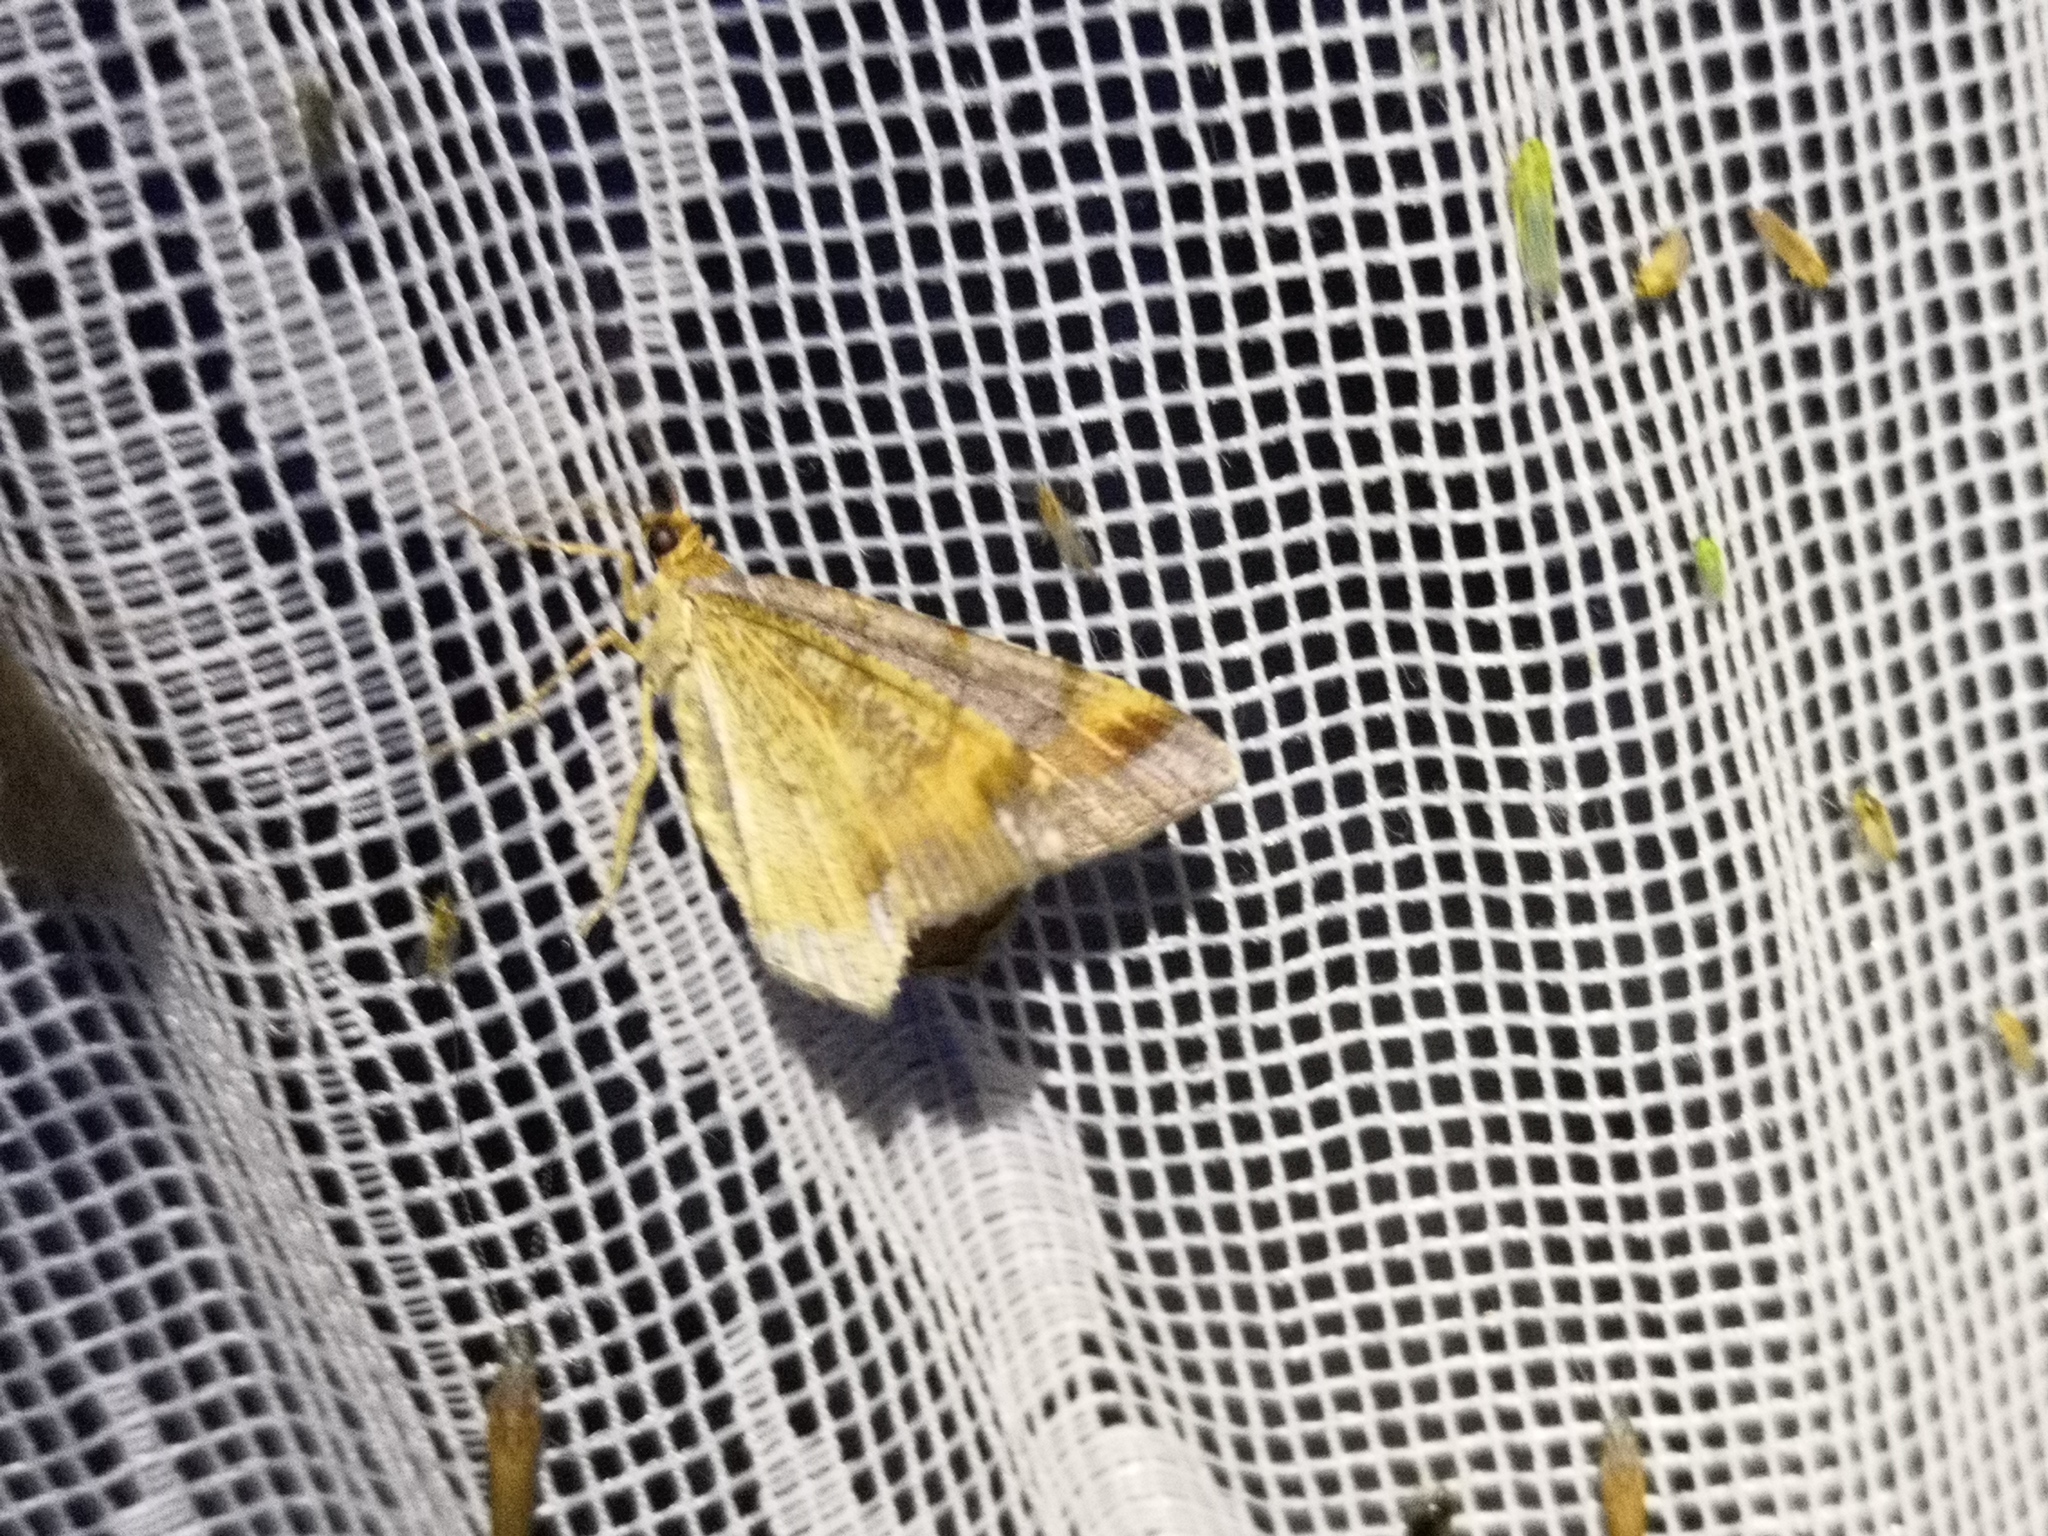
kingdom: Animalia
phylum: Arthropoda
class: Insecta
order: Lepidoptera
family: Geometridae
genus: Macaria
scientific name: Macaria liturata
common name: Tawny-barred angle
